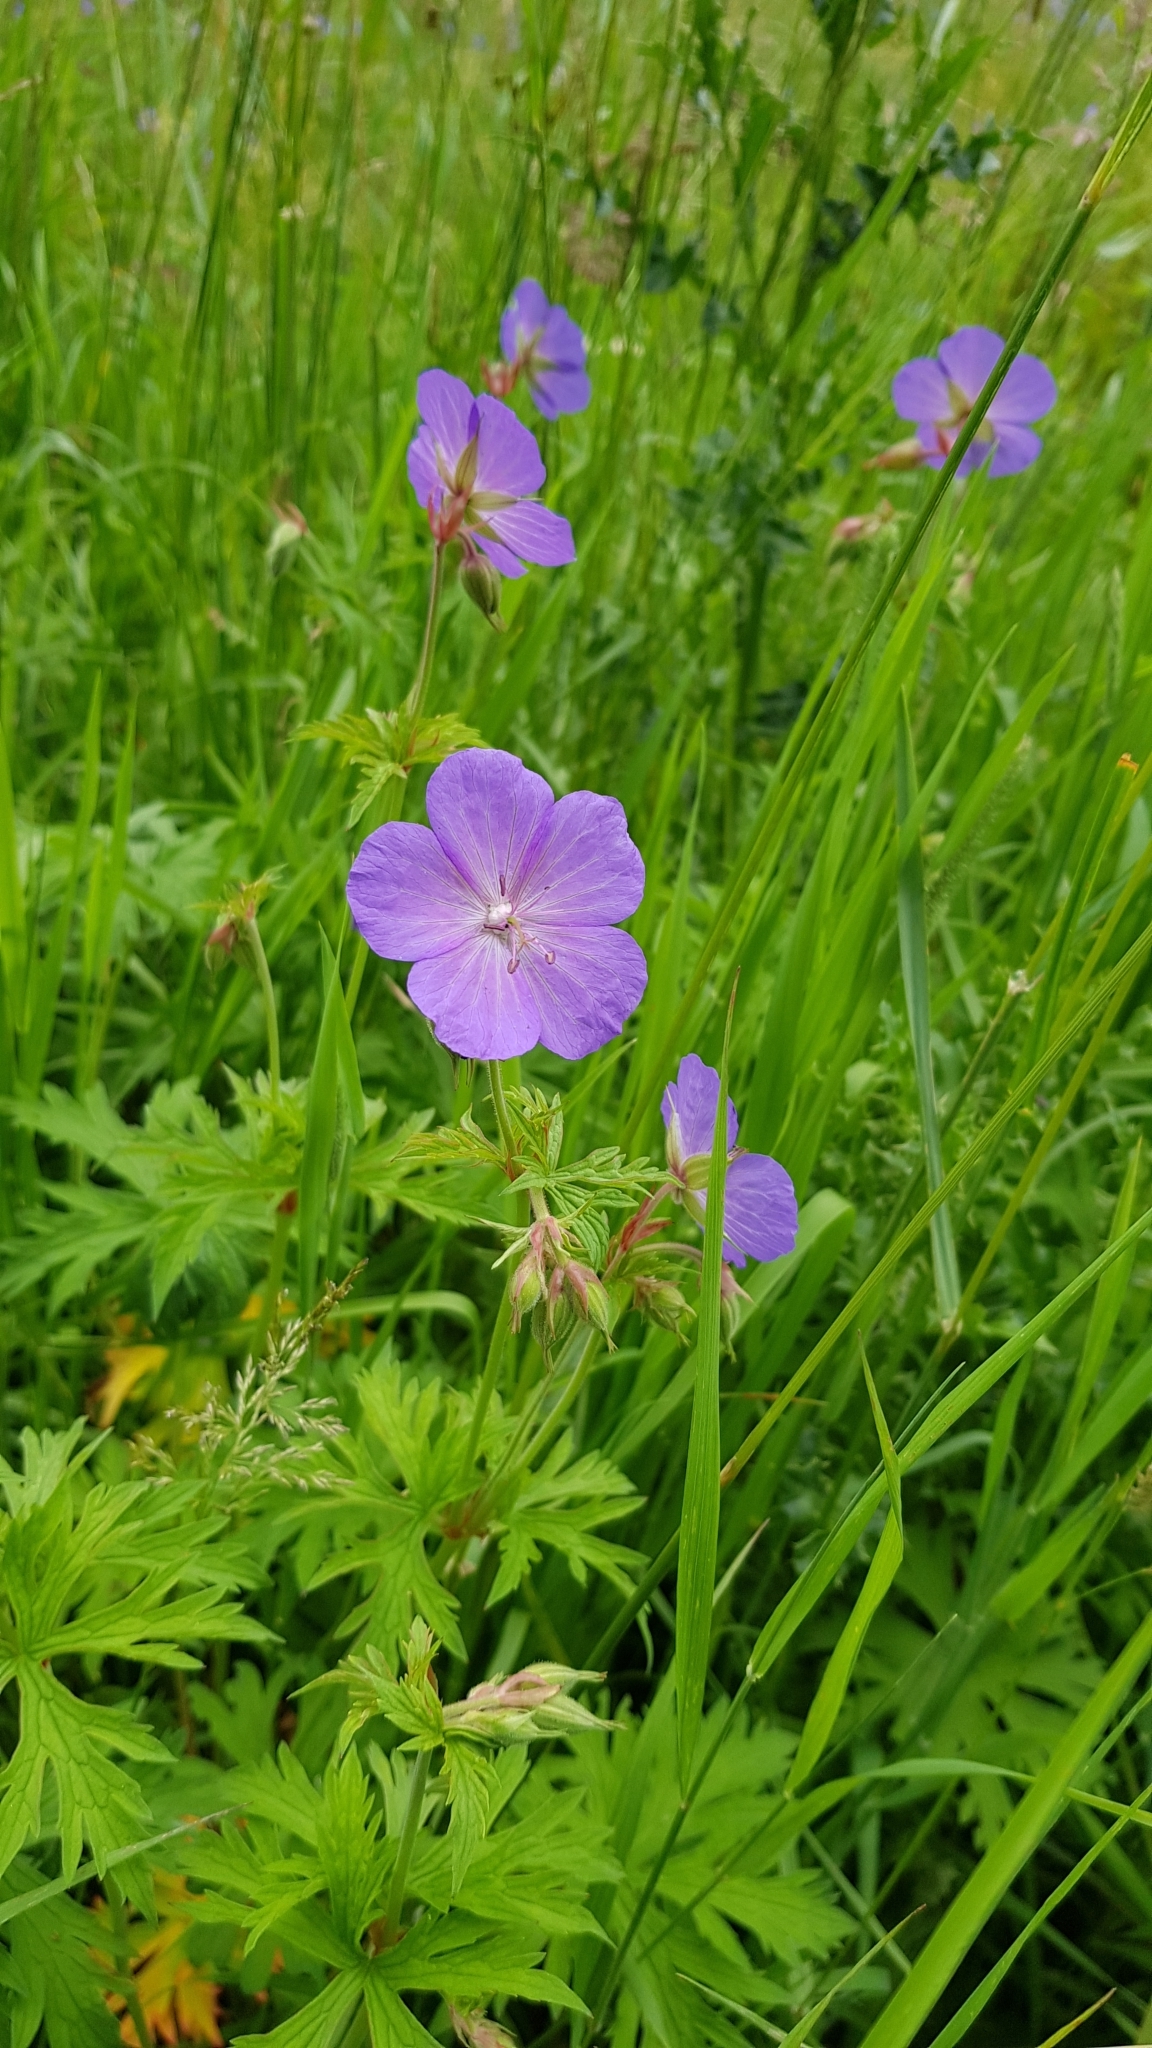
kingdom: Plantae
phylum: Tracheophyta
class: Magnoliopsida
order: Geraniales
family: Geraniaceae
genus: Geranium
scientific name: Geranium pratense
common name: Meadow crane's-bill
